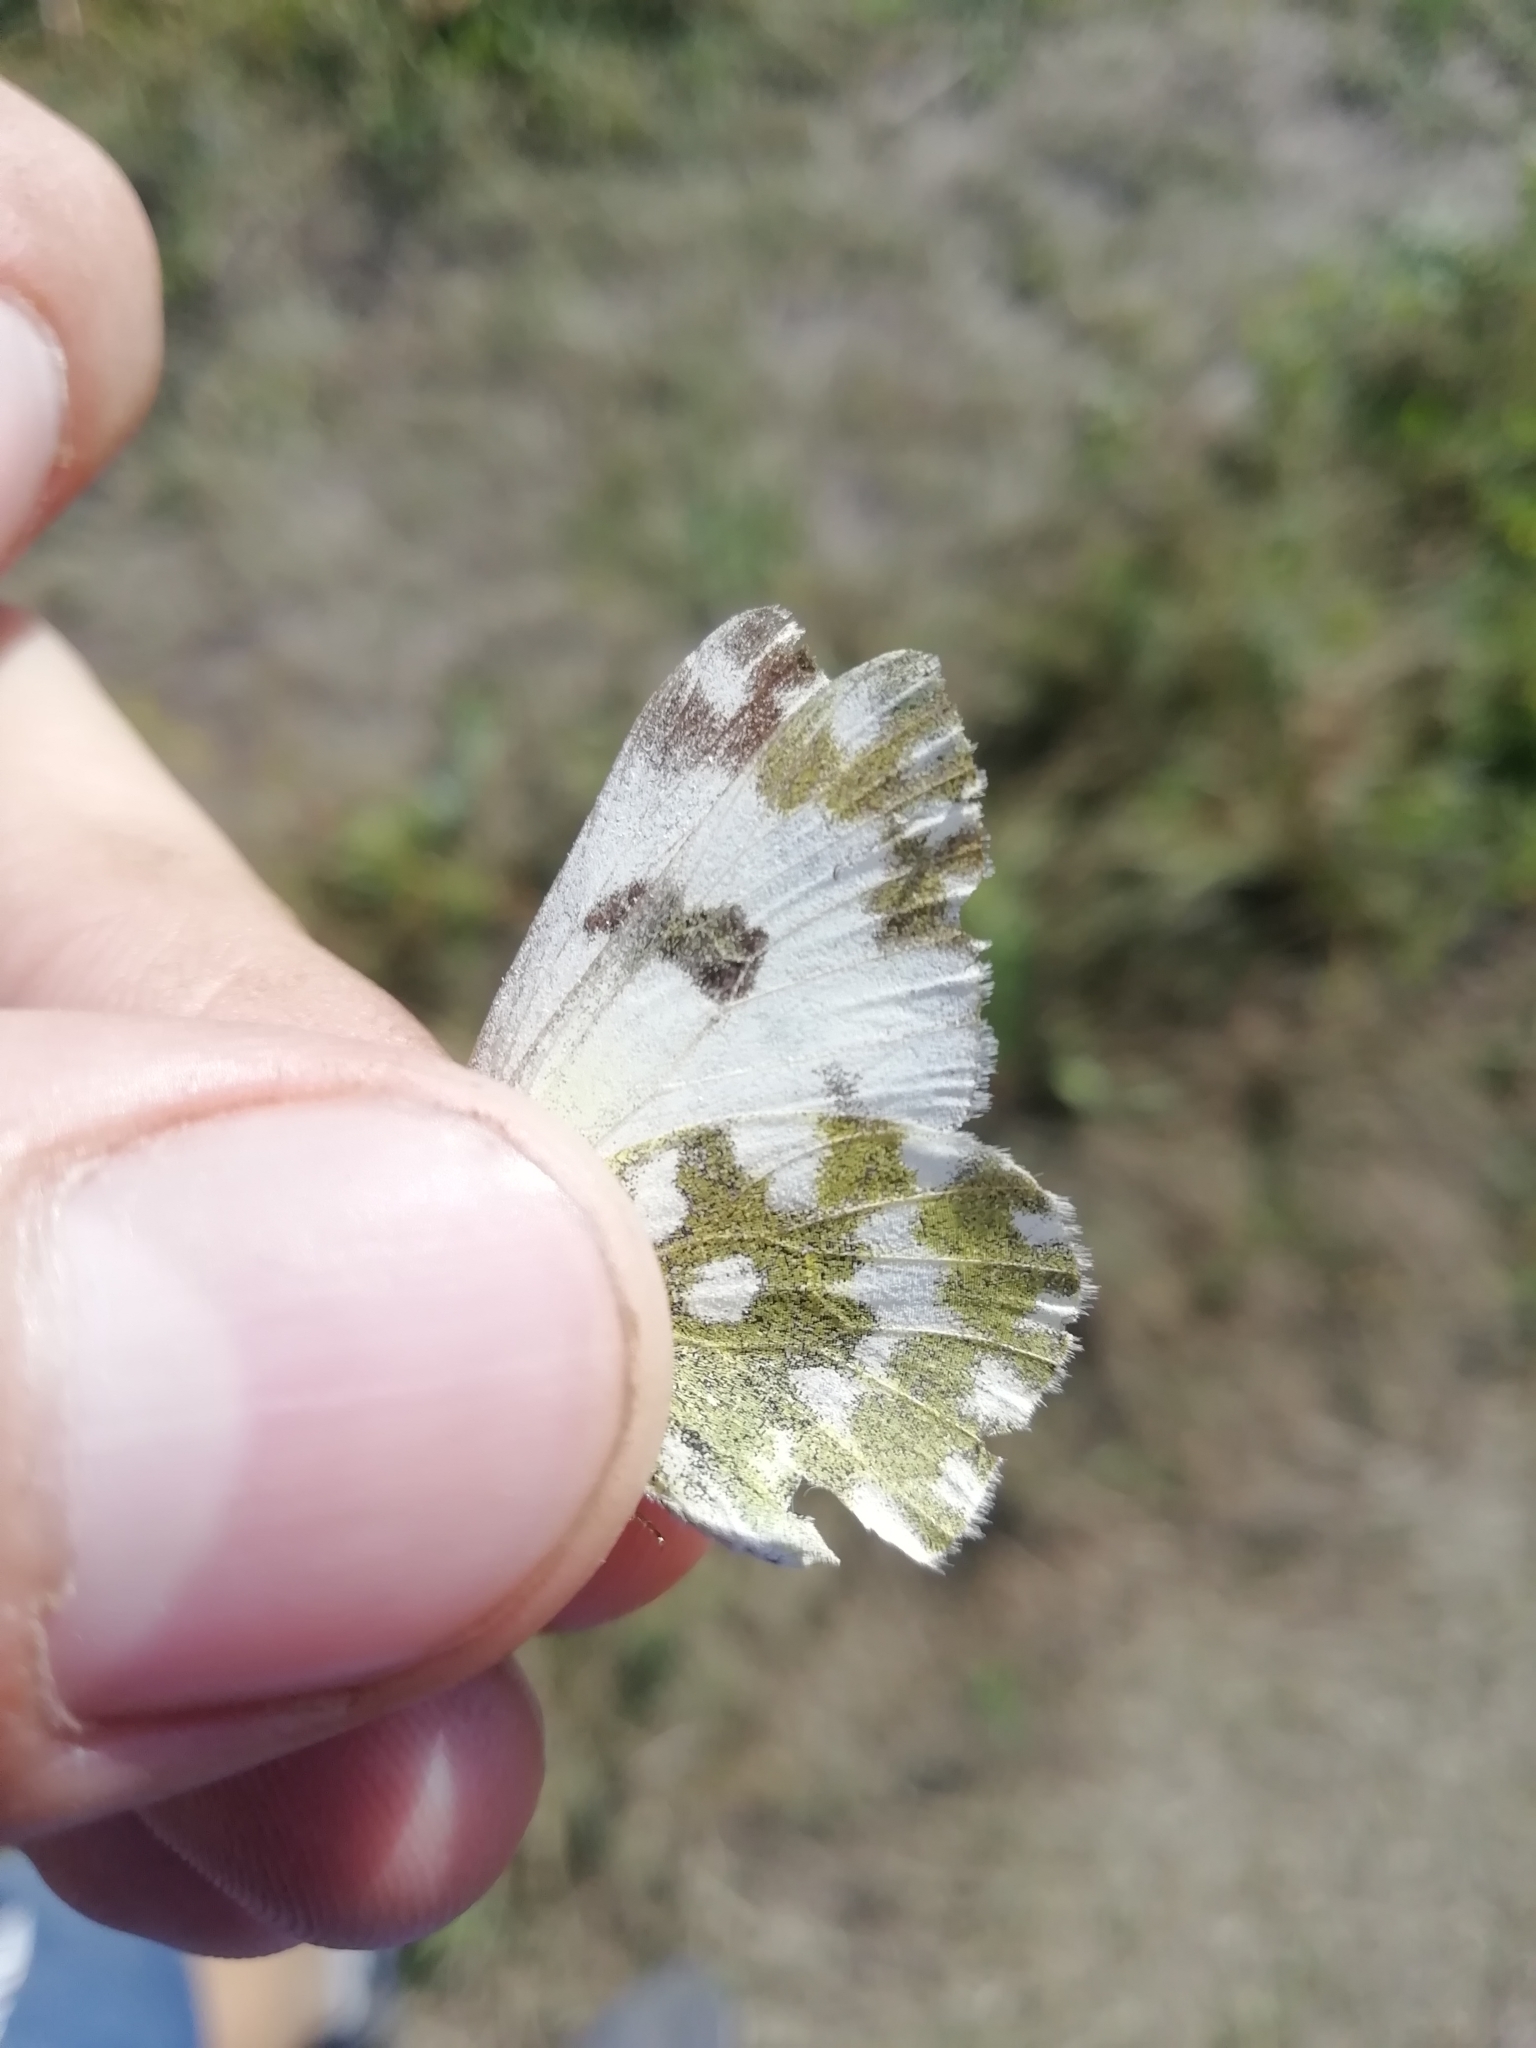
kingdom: Animalia
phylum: Arthropoda
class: Insecta
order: Lepidoptera
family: Pieridae
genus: Pontia
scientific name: Pontia edusa
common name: Eastern bath white
